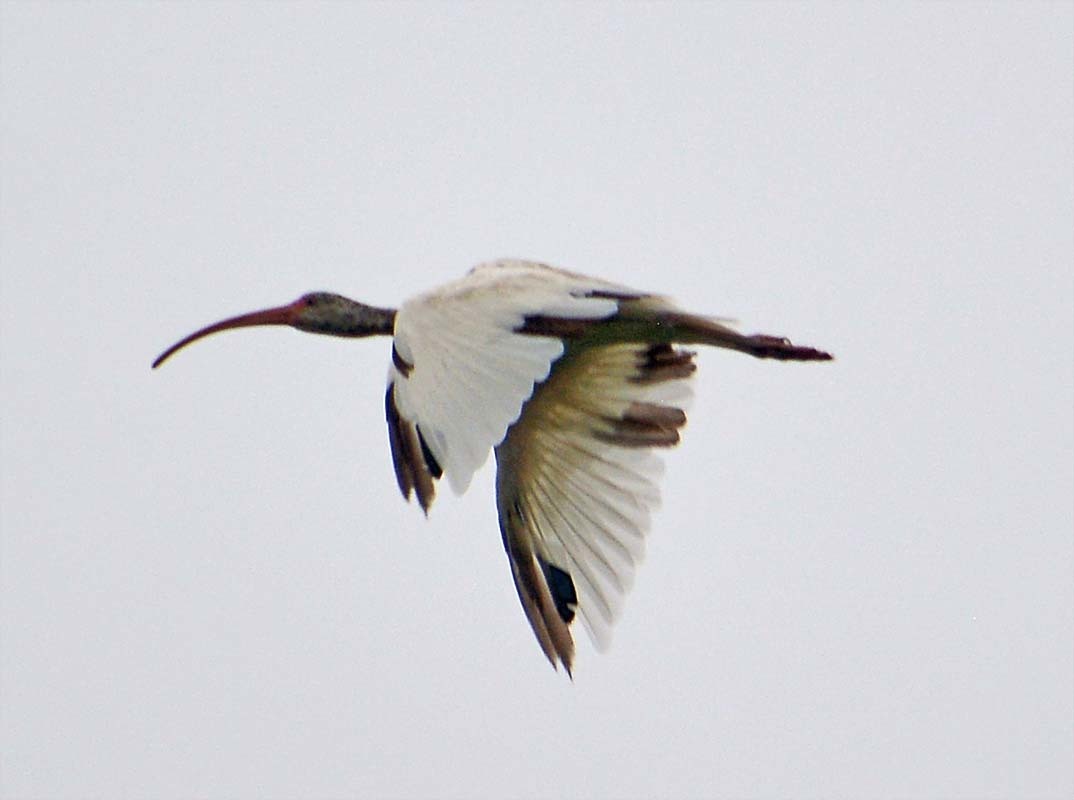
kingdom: Animalia
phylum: Chordata
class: Aves
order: Pelecaniformes
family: Threskiornithidae
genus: Eudocimus
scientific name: Eudocimus albus
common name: White ibis
